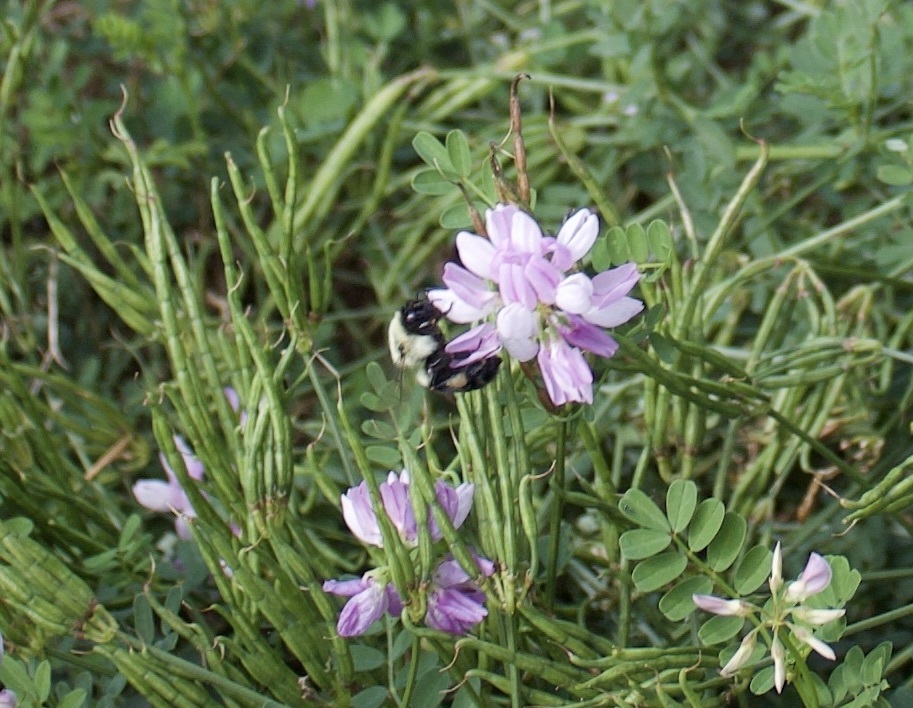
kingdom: Animalia
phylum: Arthropoda
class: Insecta
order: Hymenoptera
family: Apidae
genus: Bombus
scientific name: Bombus impatiens
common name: Common eastern bumble bee
